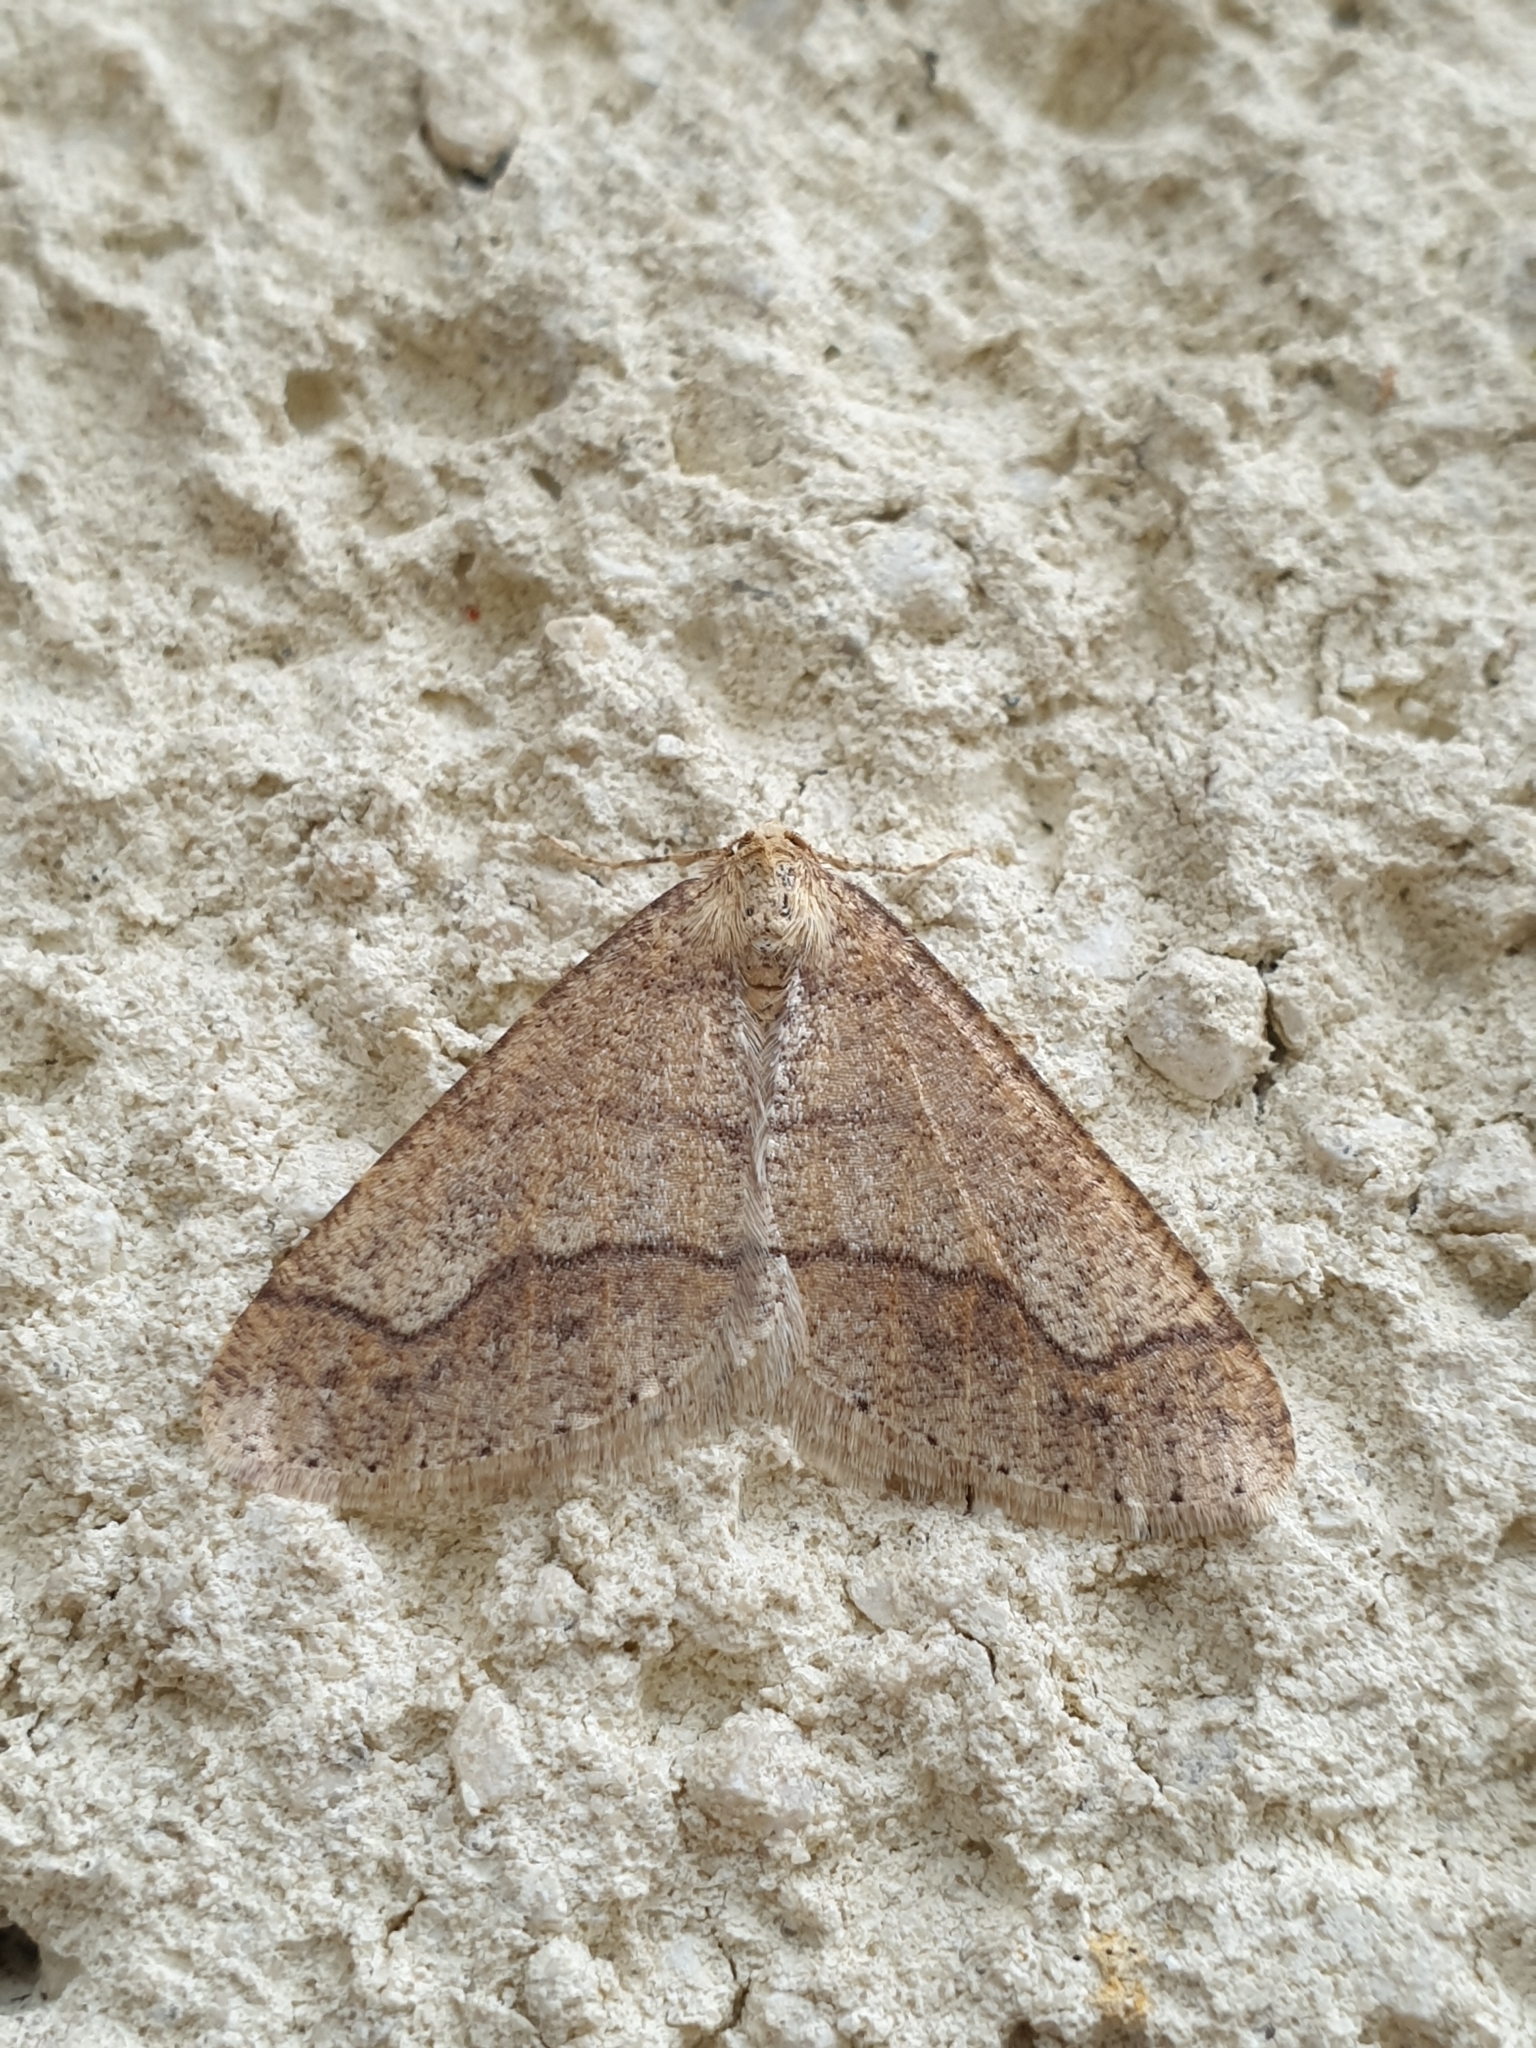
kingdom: Animalia
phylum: Arthropoda
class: Insecta
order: Lepidoptera
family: Geometridae
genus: Agriopis
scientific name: Agriopis marginaria
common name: Dotted border
